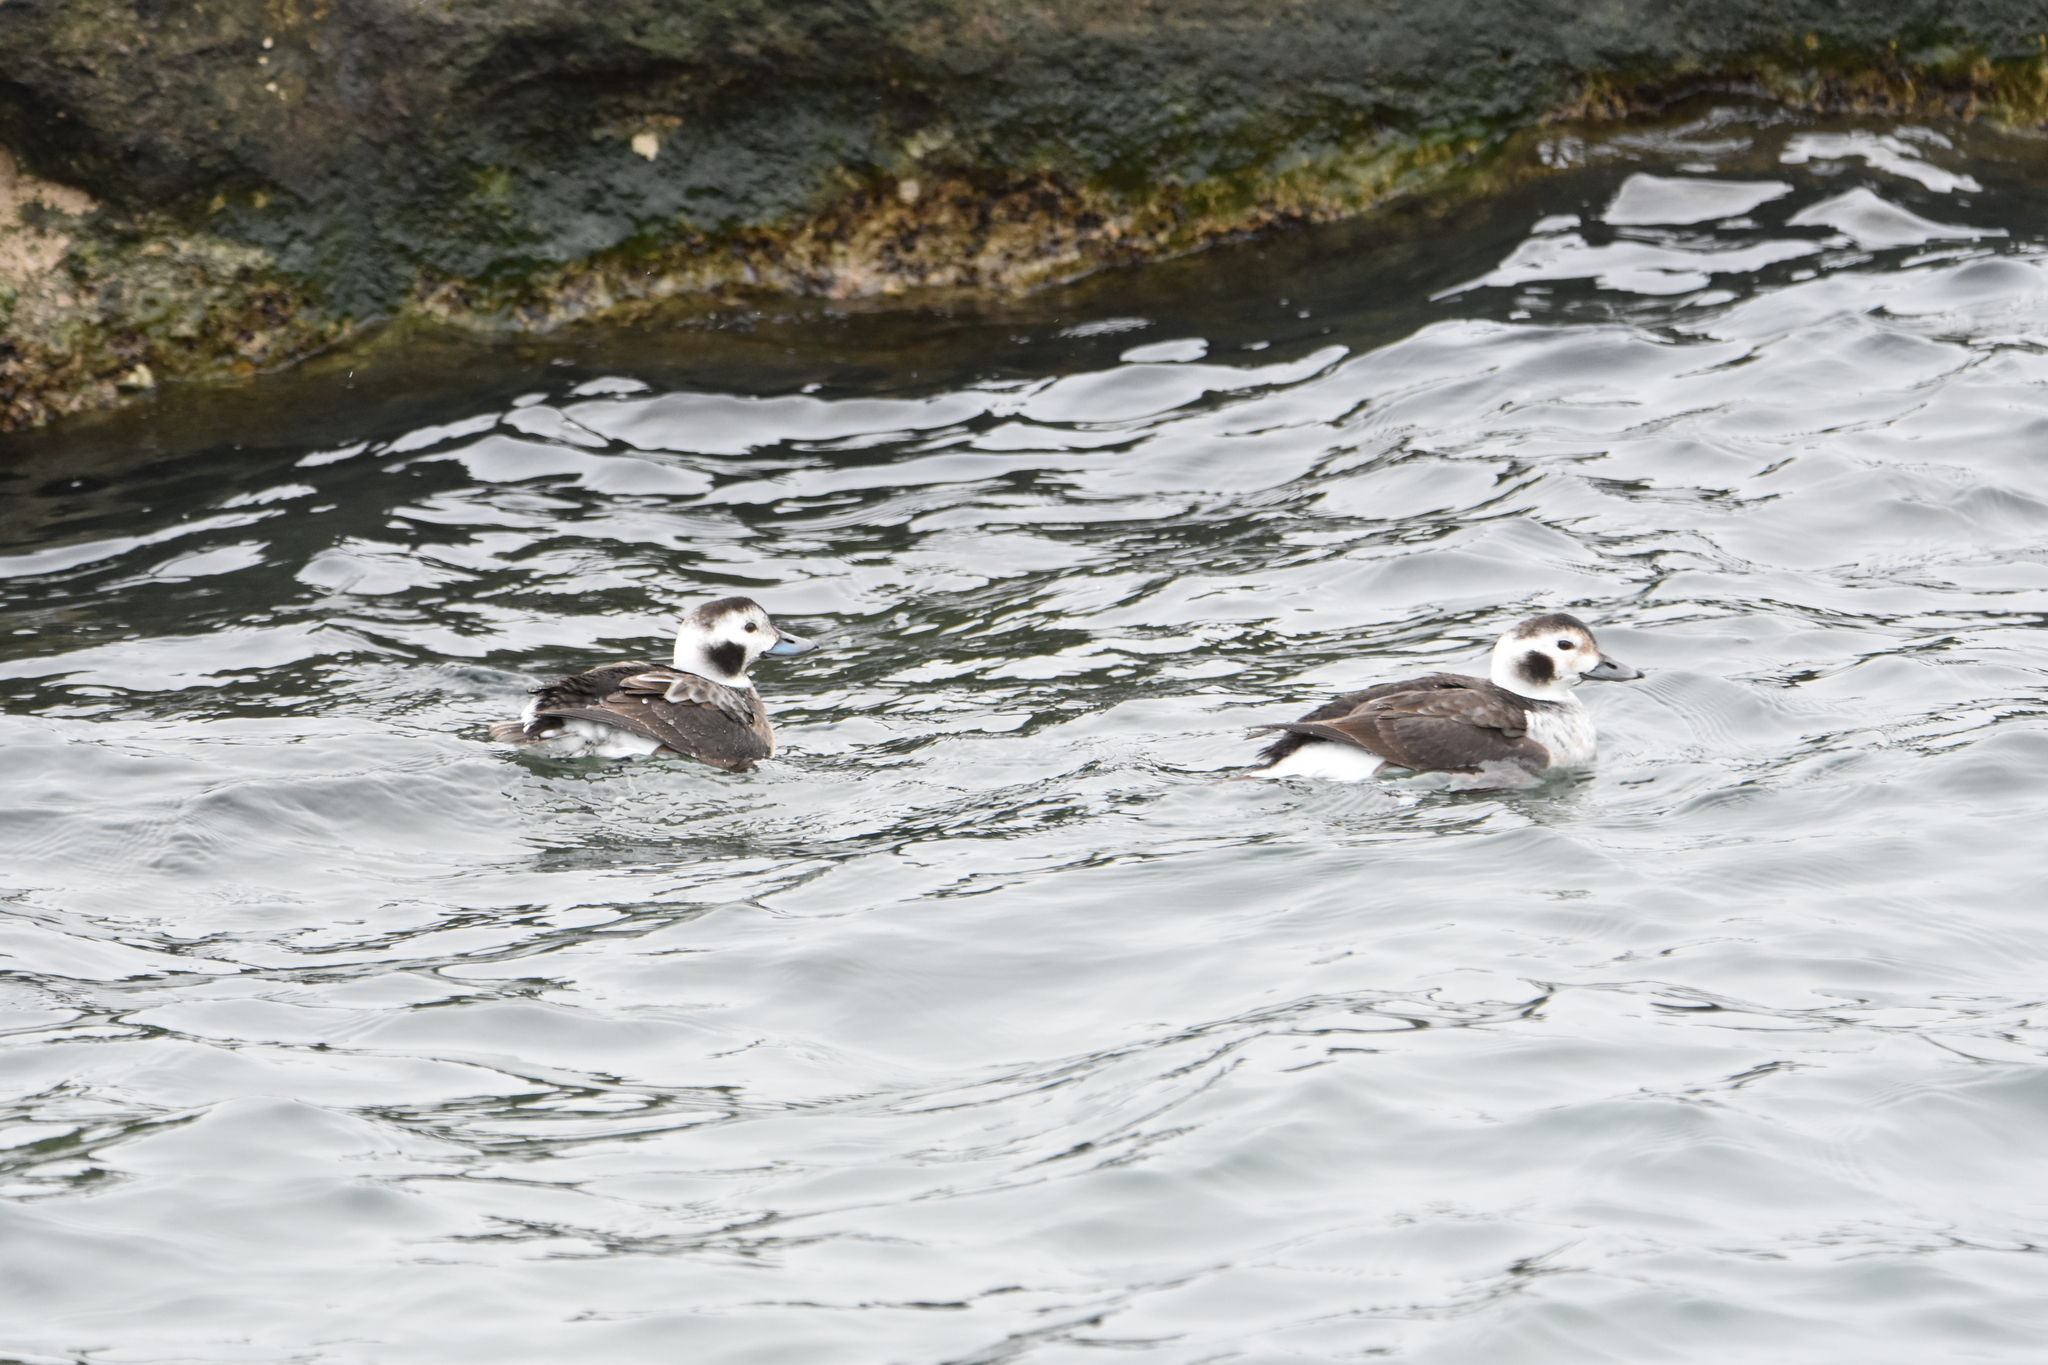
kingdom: Animalia
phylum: Chordata
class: Aves
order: Anseriformes
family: Anatidae
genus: Clangula
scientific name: Clangula hyemalis
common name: Long-tailed duck
